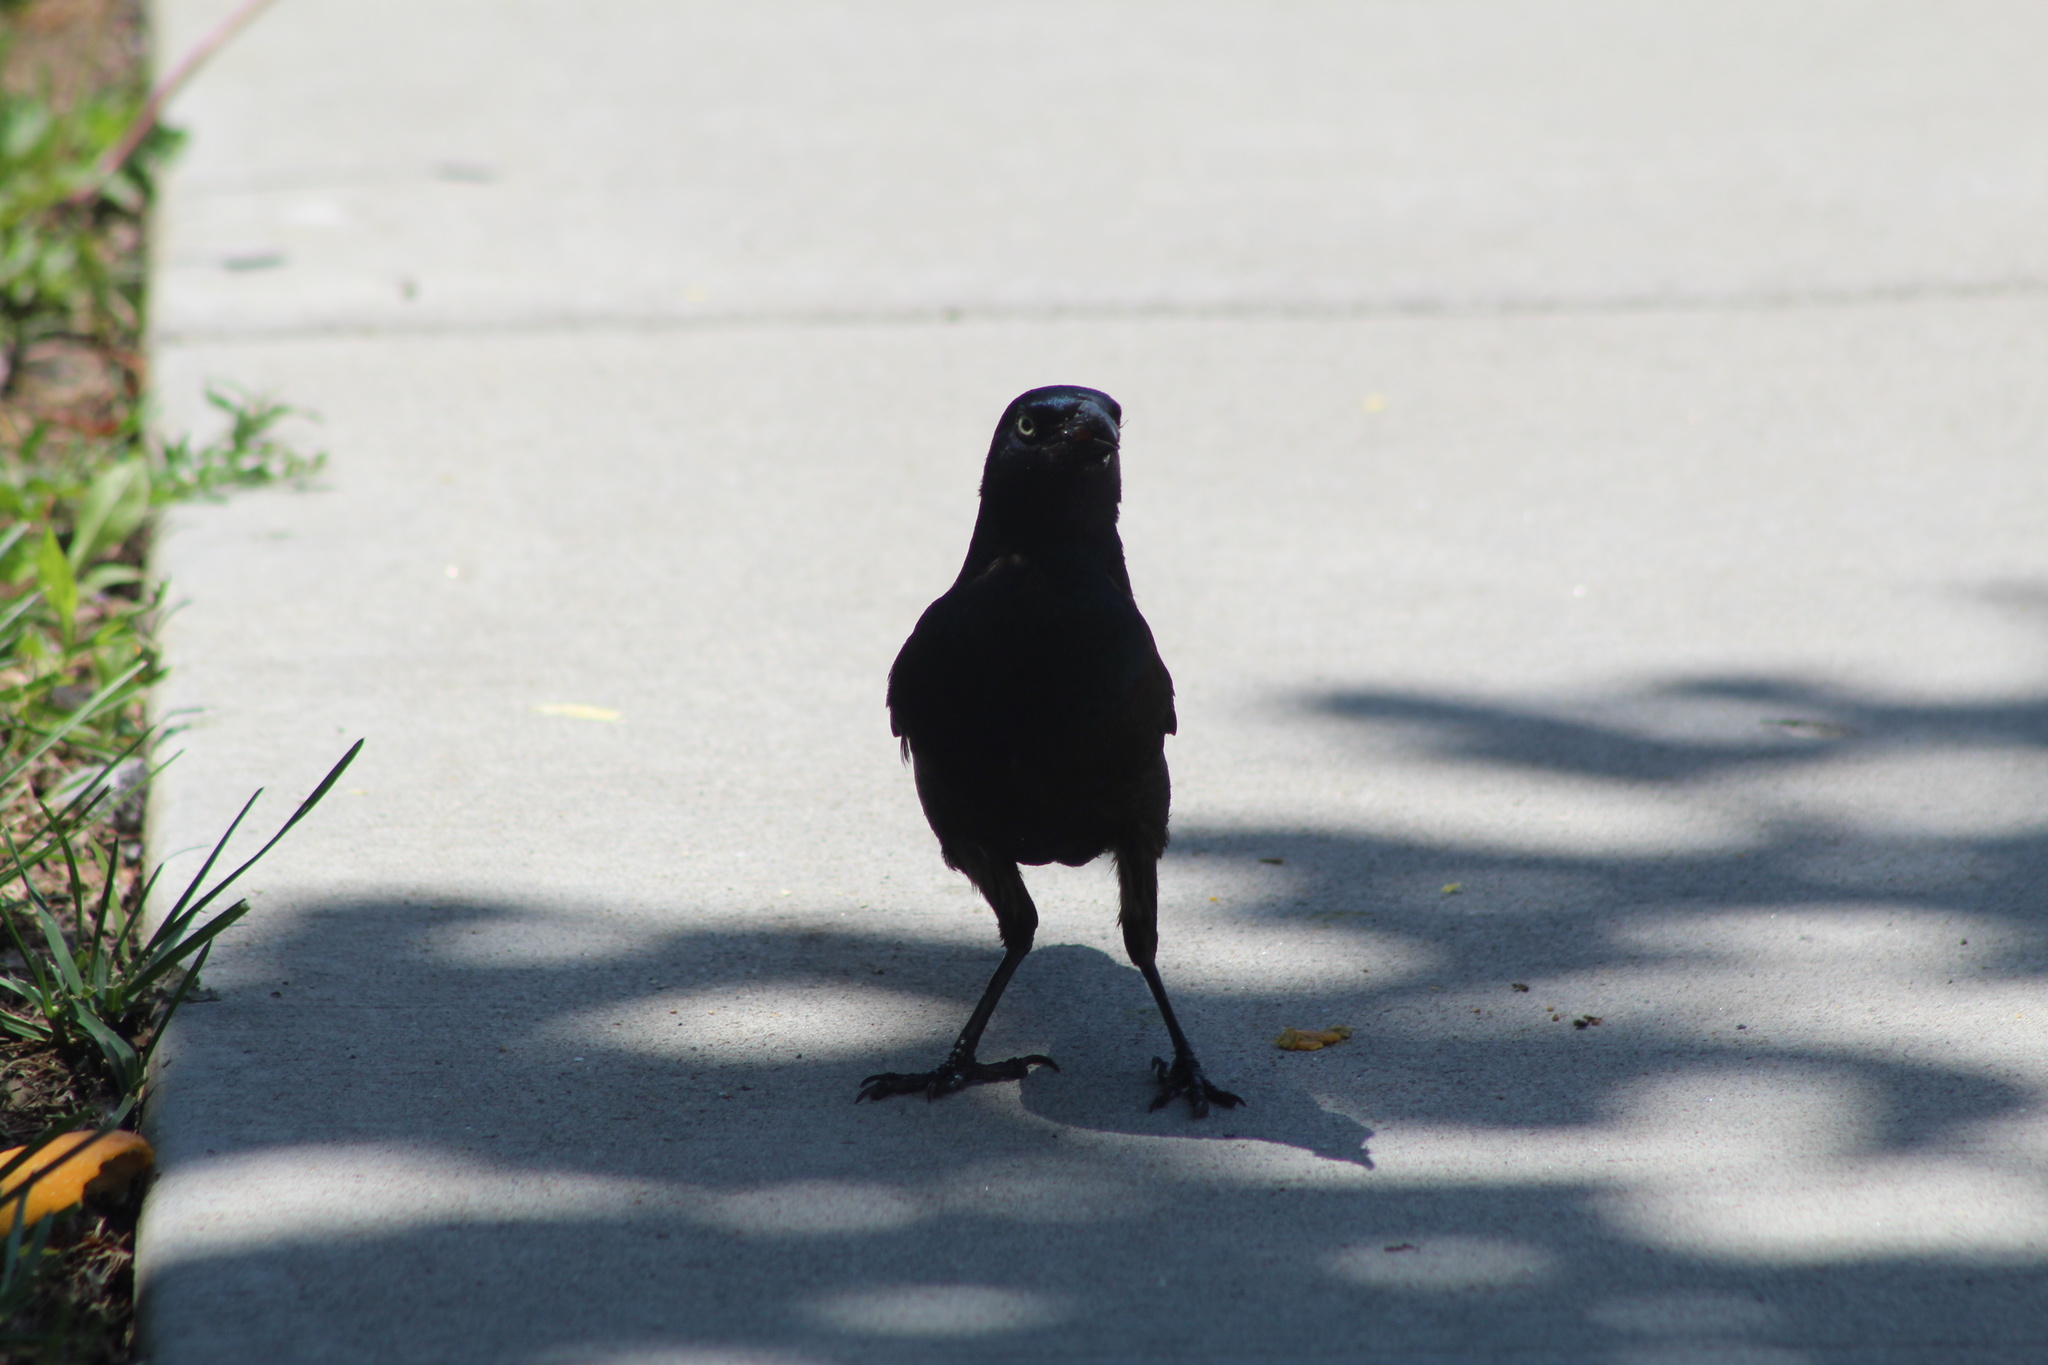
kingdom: Animalia
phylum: Chordata
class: Aves
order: Passeriformes
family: Icteridae
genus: Quiscalus
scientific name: Quiscalus quiscula
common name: Common grackle
